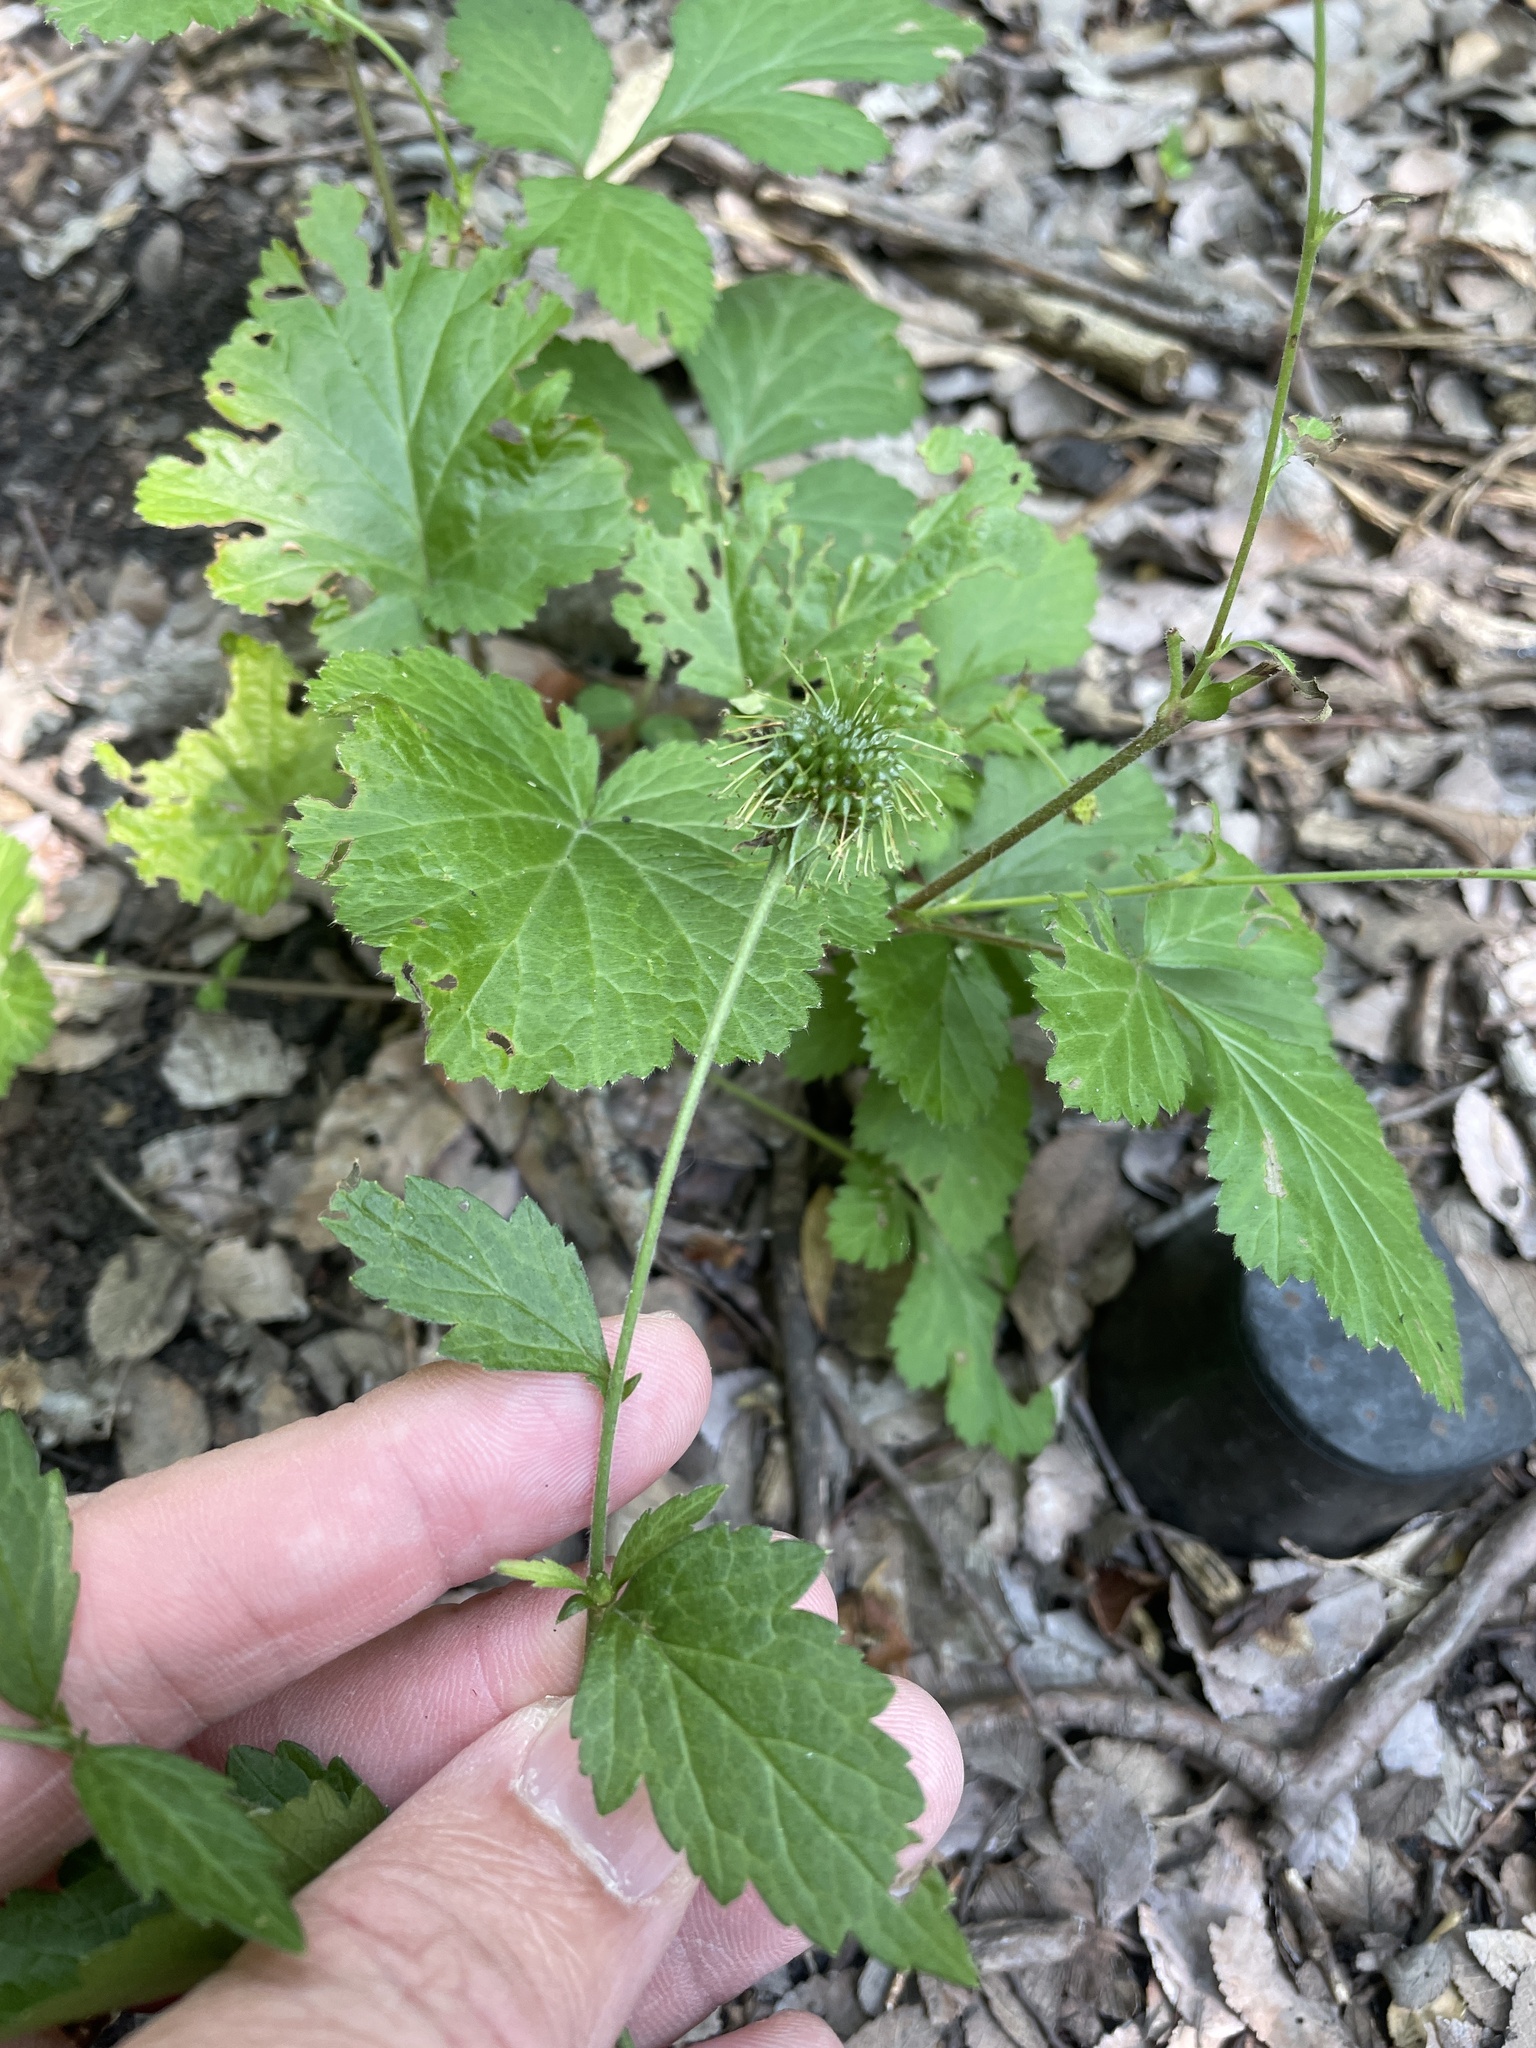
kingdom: Plantae
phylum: Tracheophyta
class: Magnoliopsida
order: Rosales
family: Rosaceae
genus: Geum
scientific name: Geum canadense
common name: White avens
